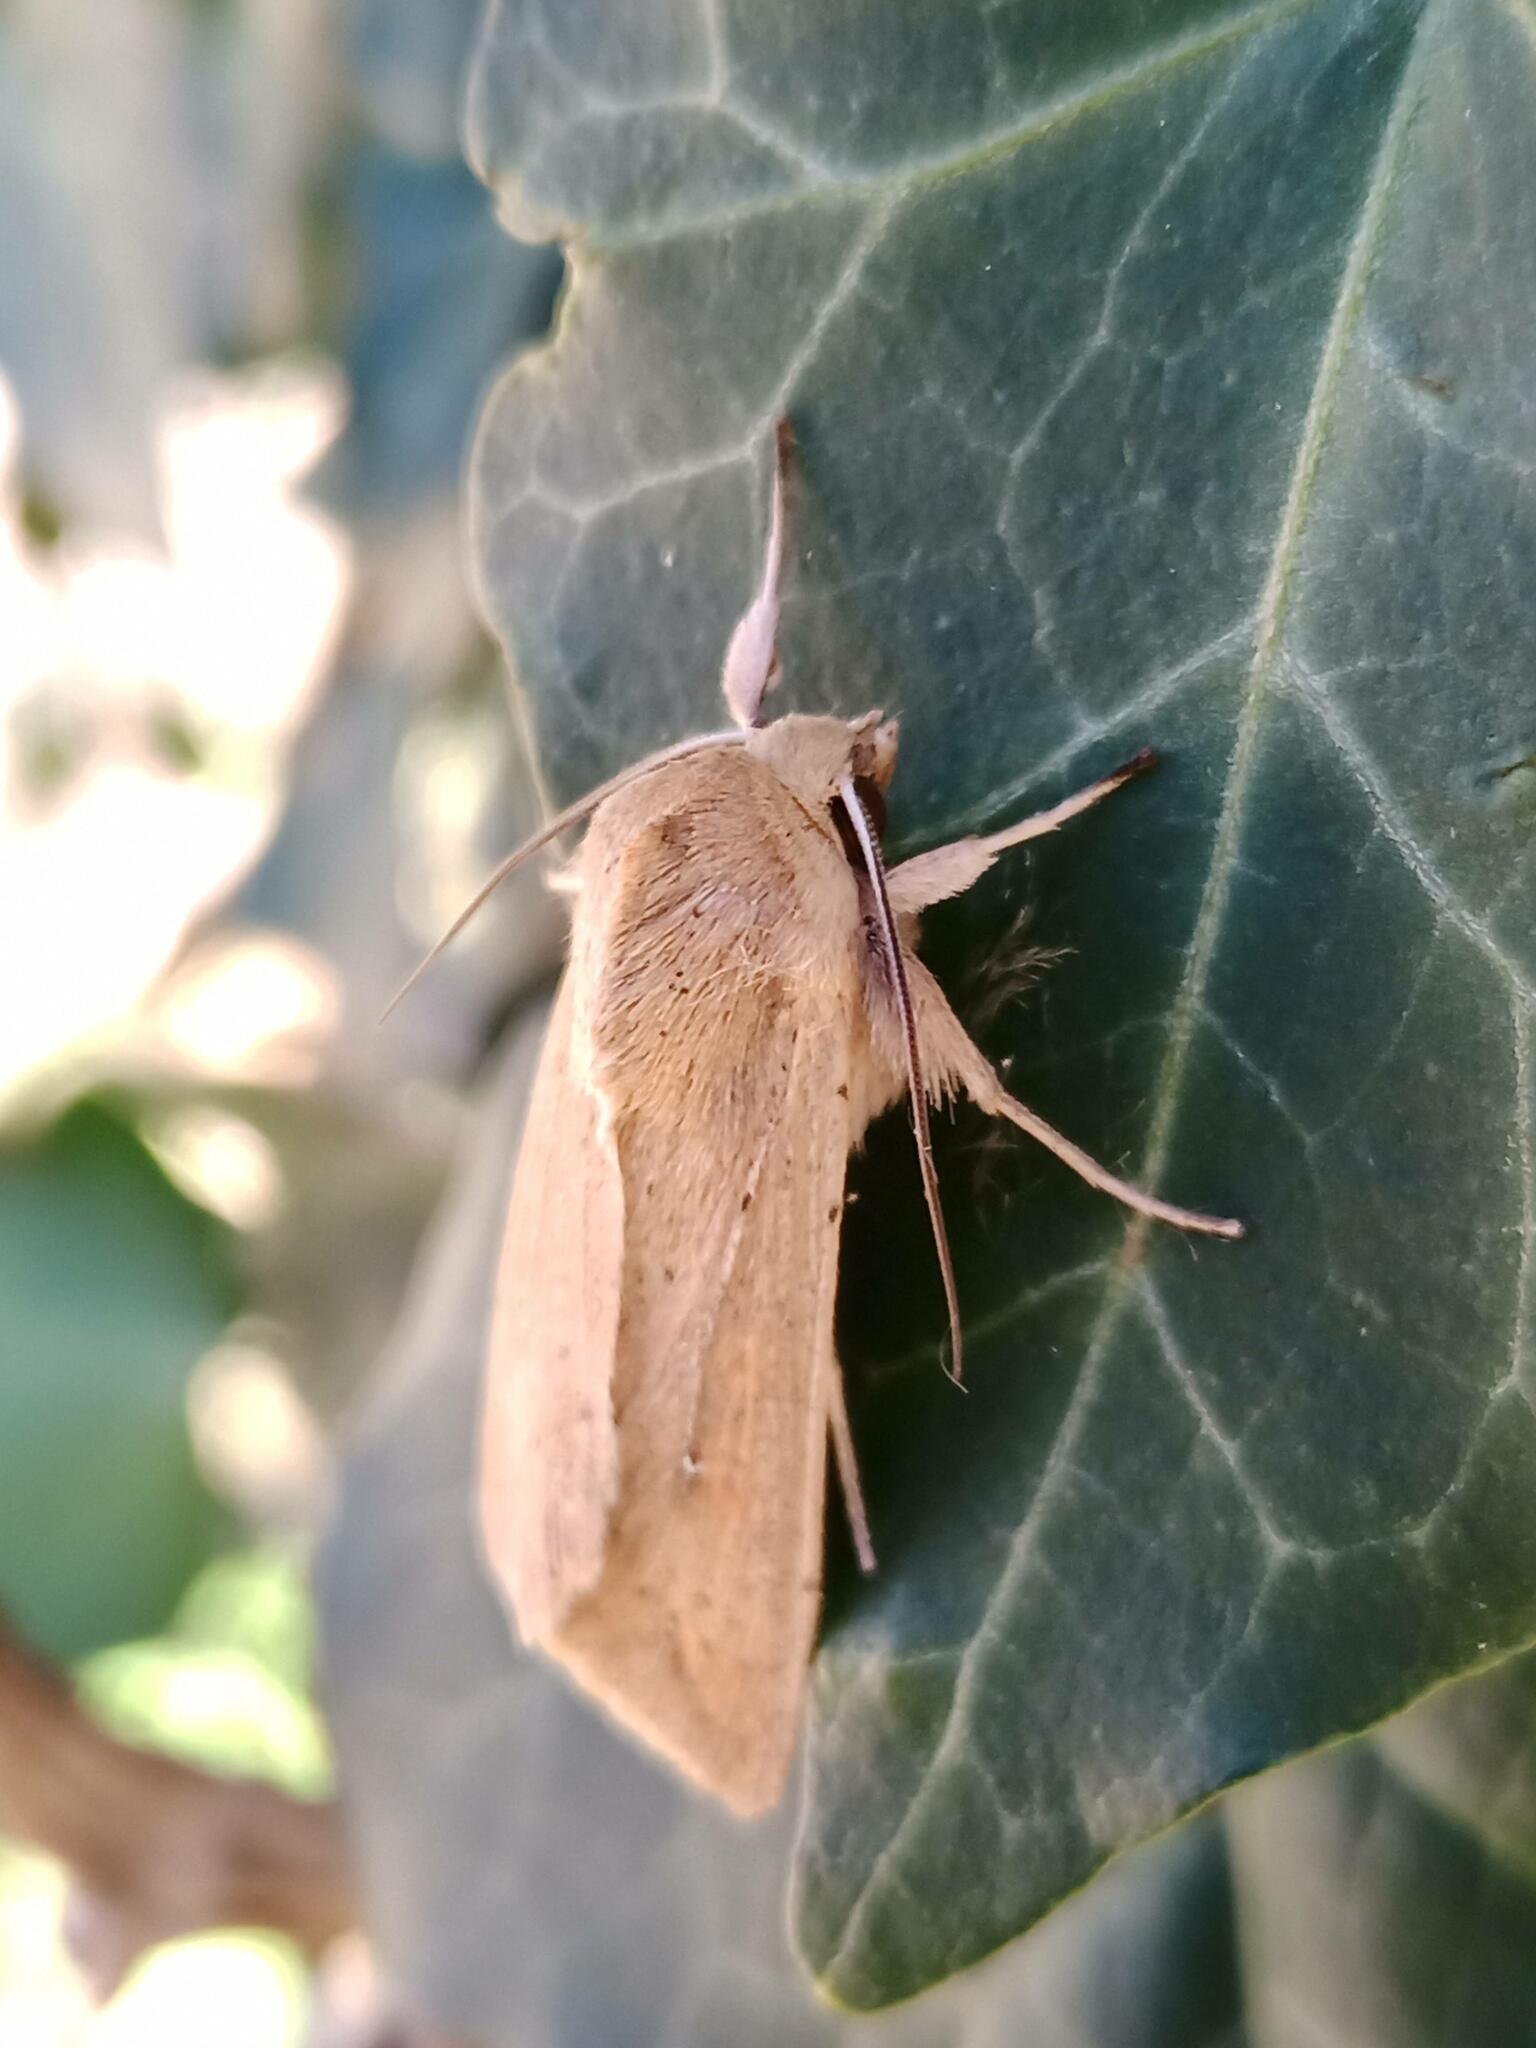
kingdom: Animalia
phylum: Arthropoda
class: Insecta
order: Lepidoptera
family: Noctuidae
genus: Mythimna
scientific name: Mythimna unipuncta
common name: White-speck
